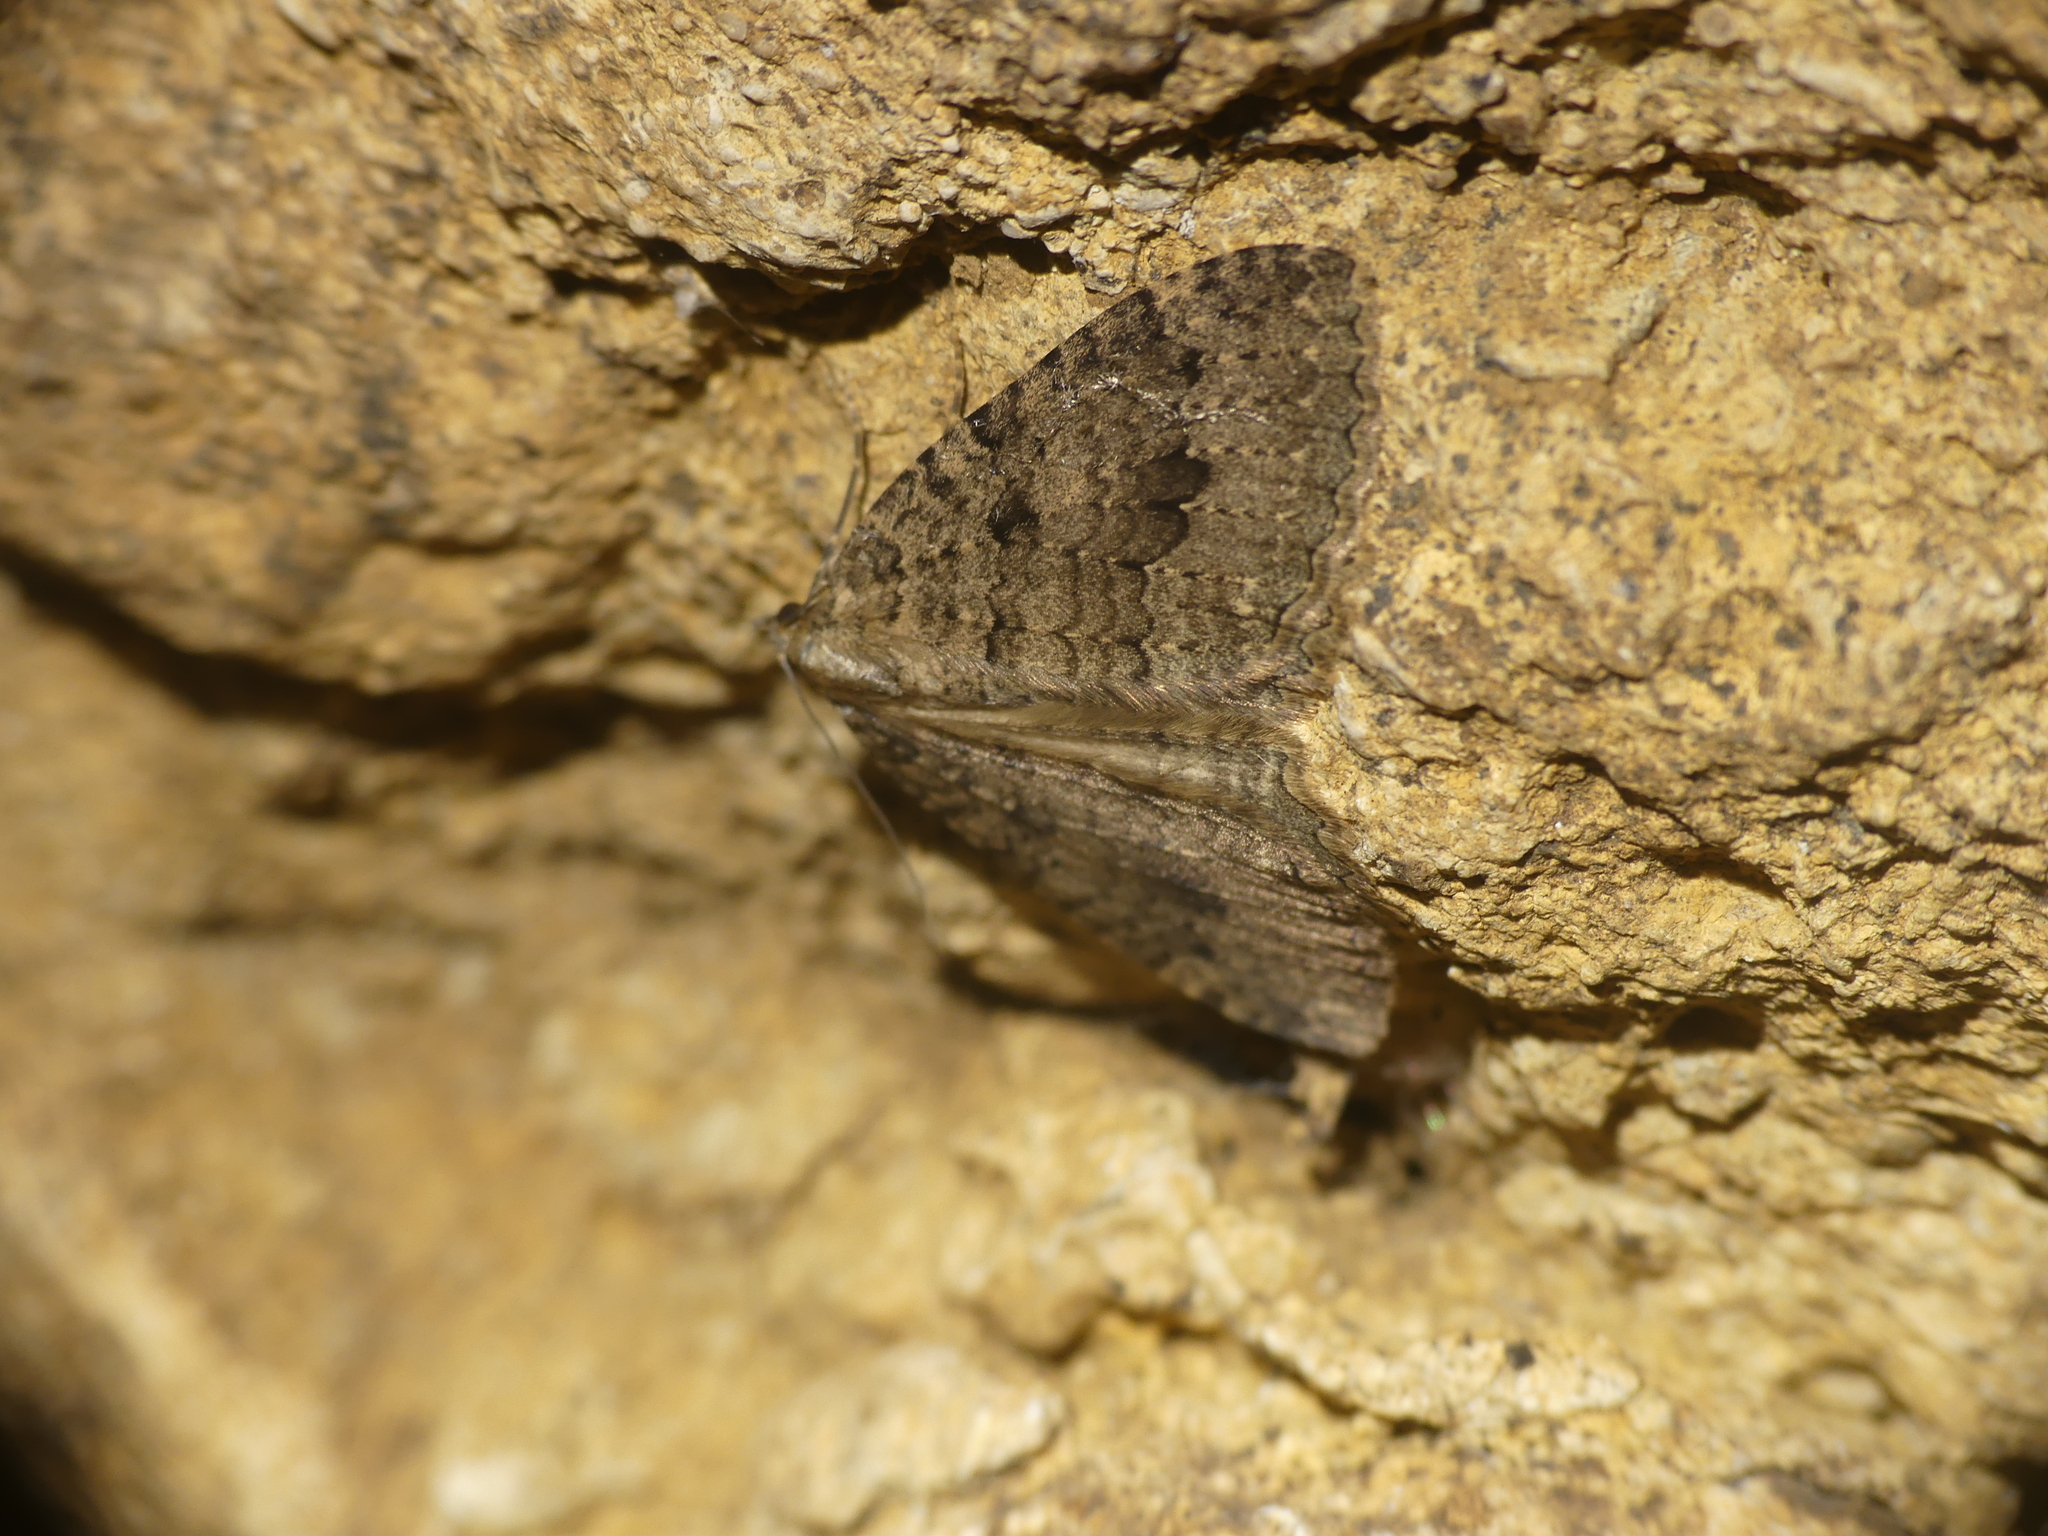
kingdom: Animalia
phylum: Arthropoda
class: Insecta
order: Lepidoptera
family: Geometridae
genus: Triphosa
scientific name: Triphosa dubitata
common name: Tissue
